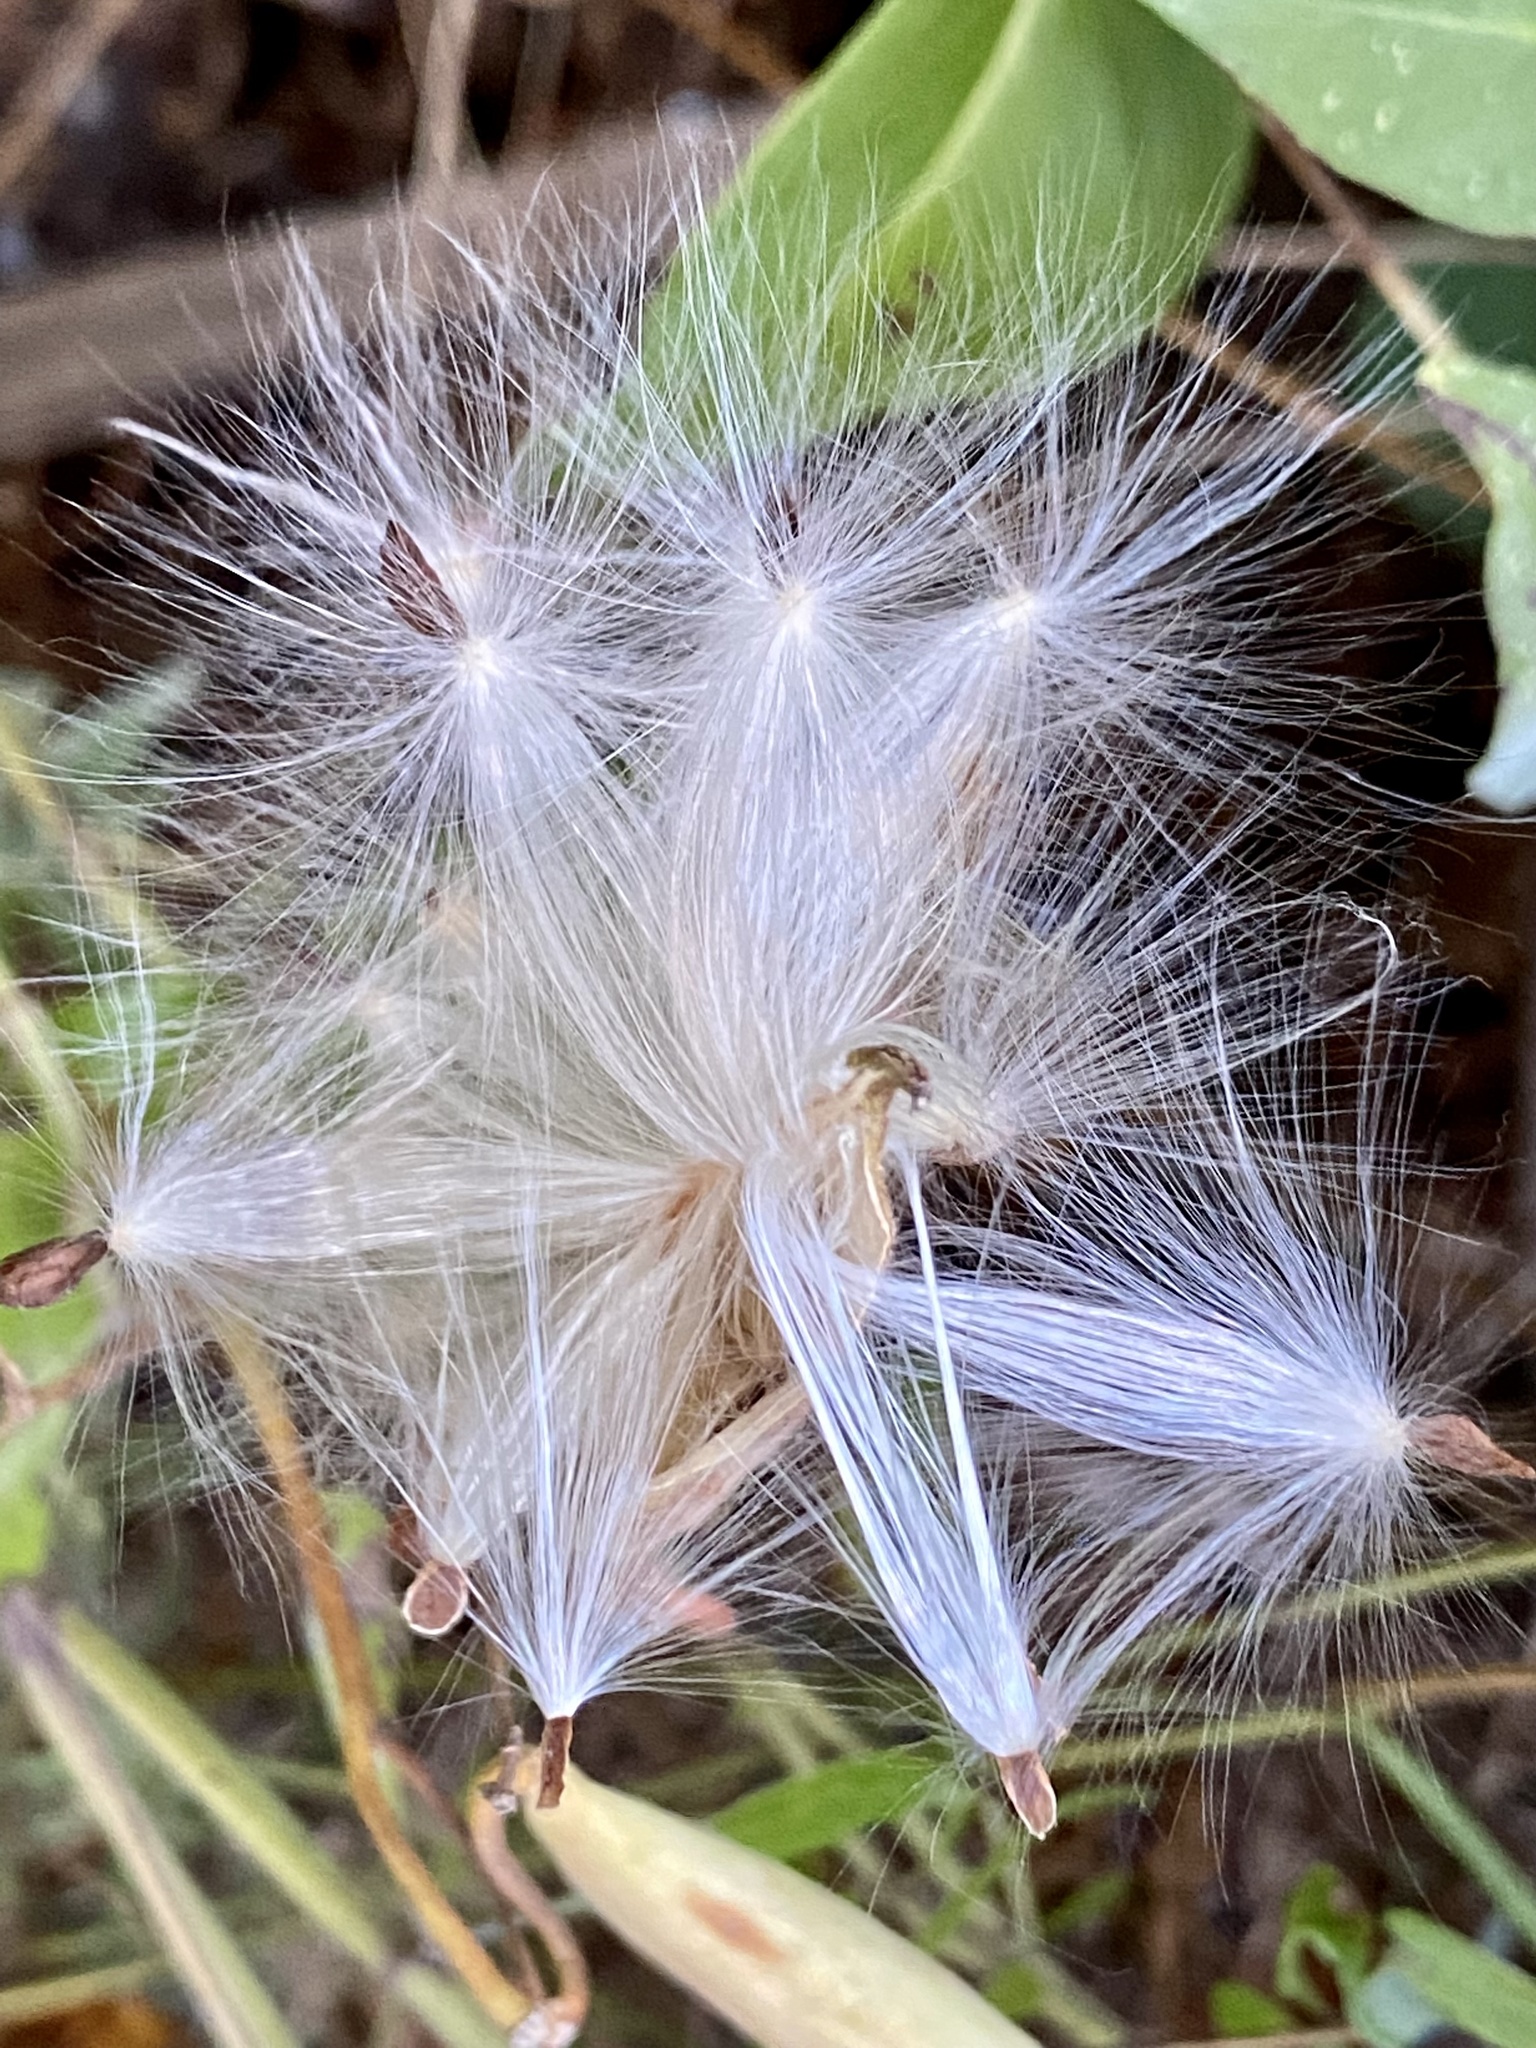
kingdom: Plantae
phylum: Tracheophyta
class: Magnoliopsida
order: Gentianales
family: Apocynaceae
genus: Asclepias
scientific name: Asclepias tuberosa
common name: Butterfly milkweed
